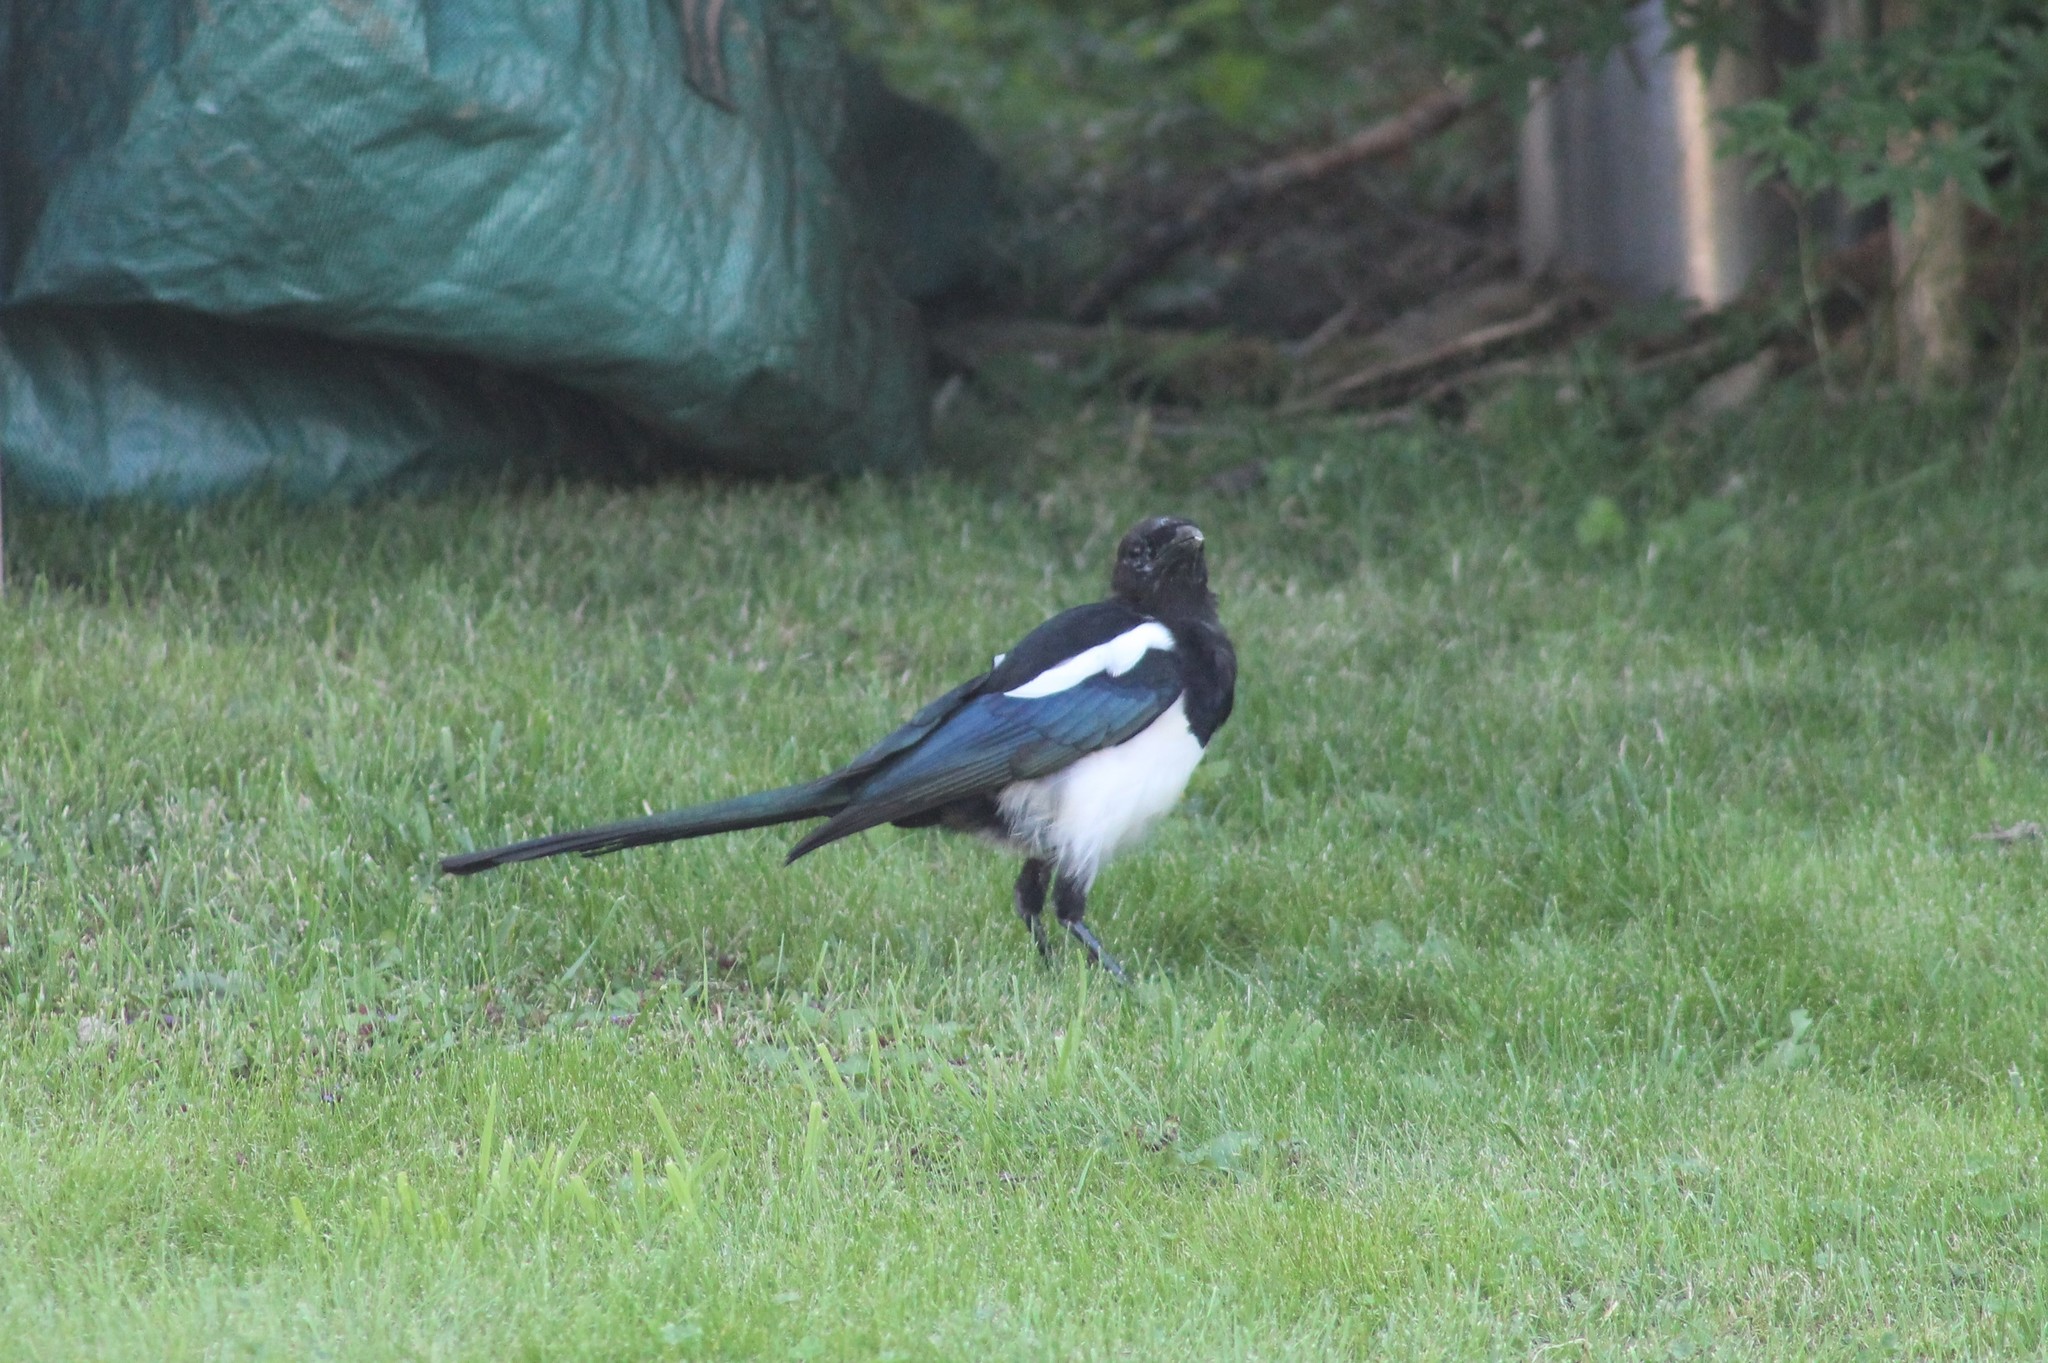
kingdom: Animalia
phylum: Chordata
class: Aves
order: Passeriformes
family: Corvidae
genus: Pica
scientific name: Pica pica
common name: Eurasian magpie
